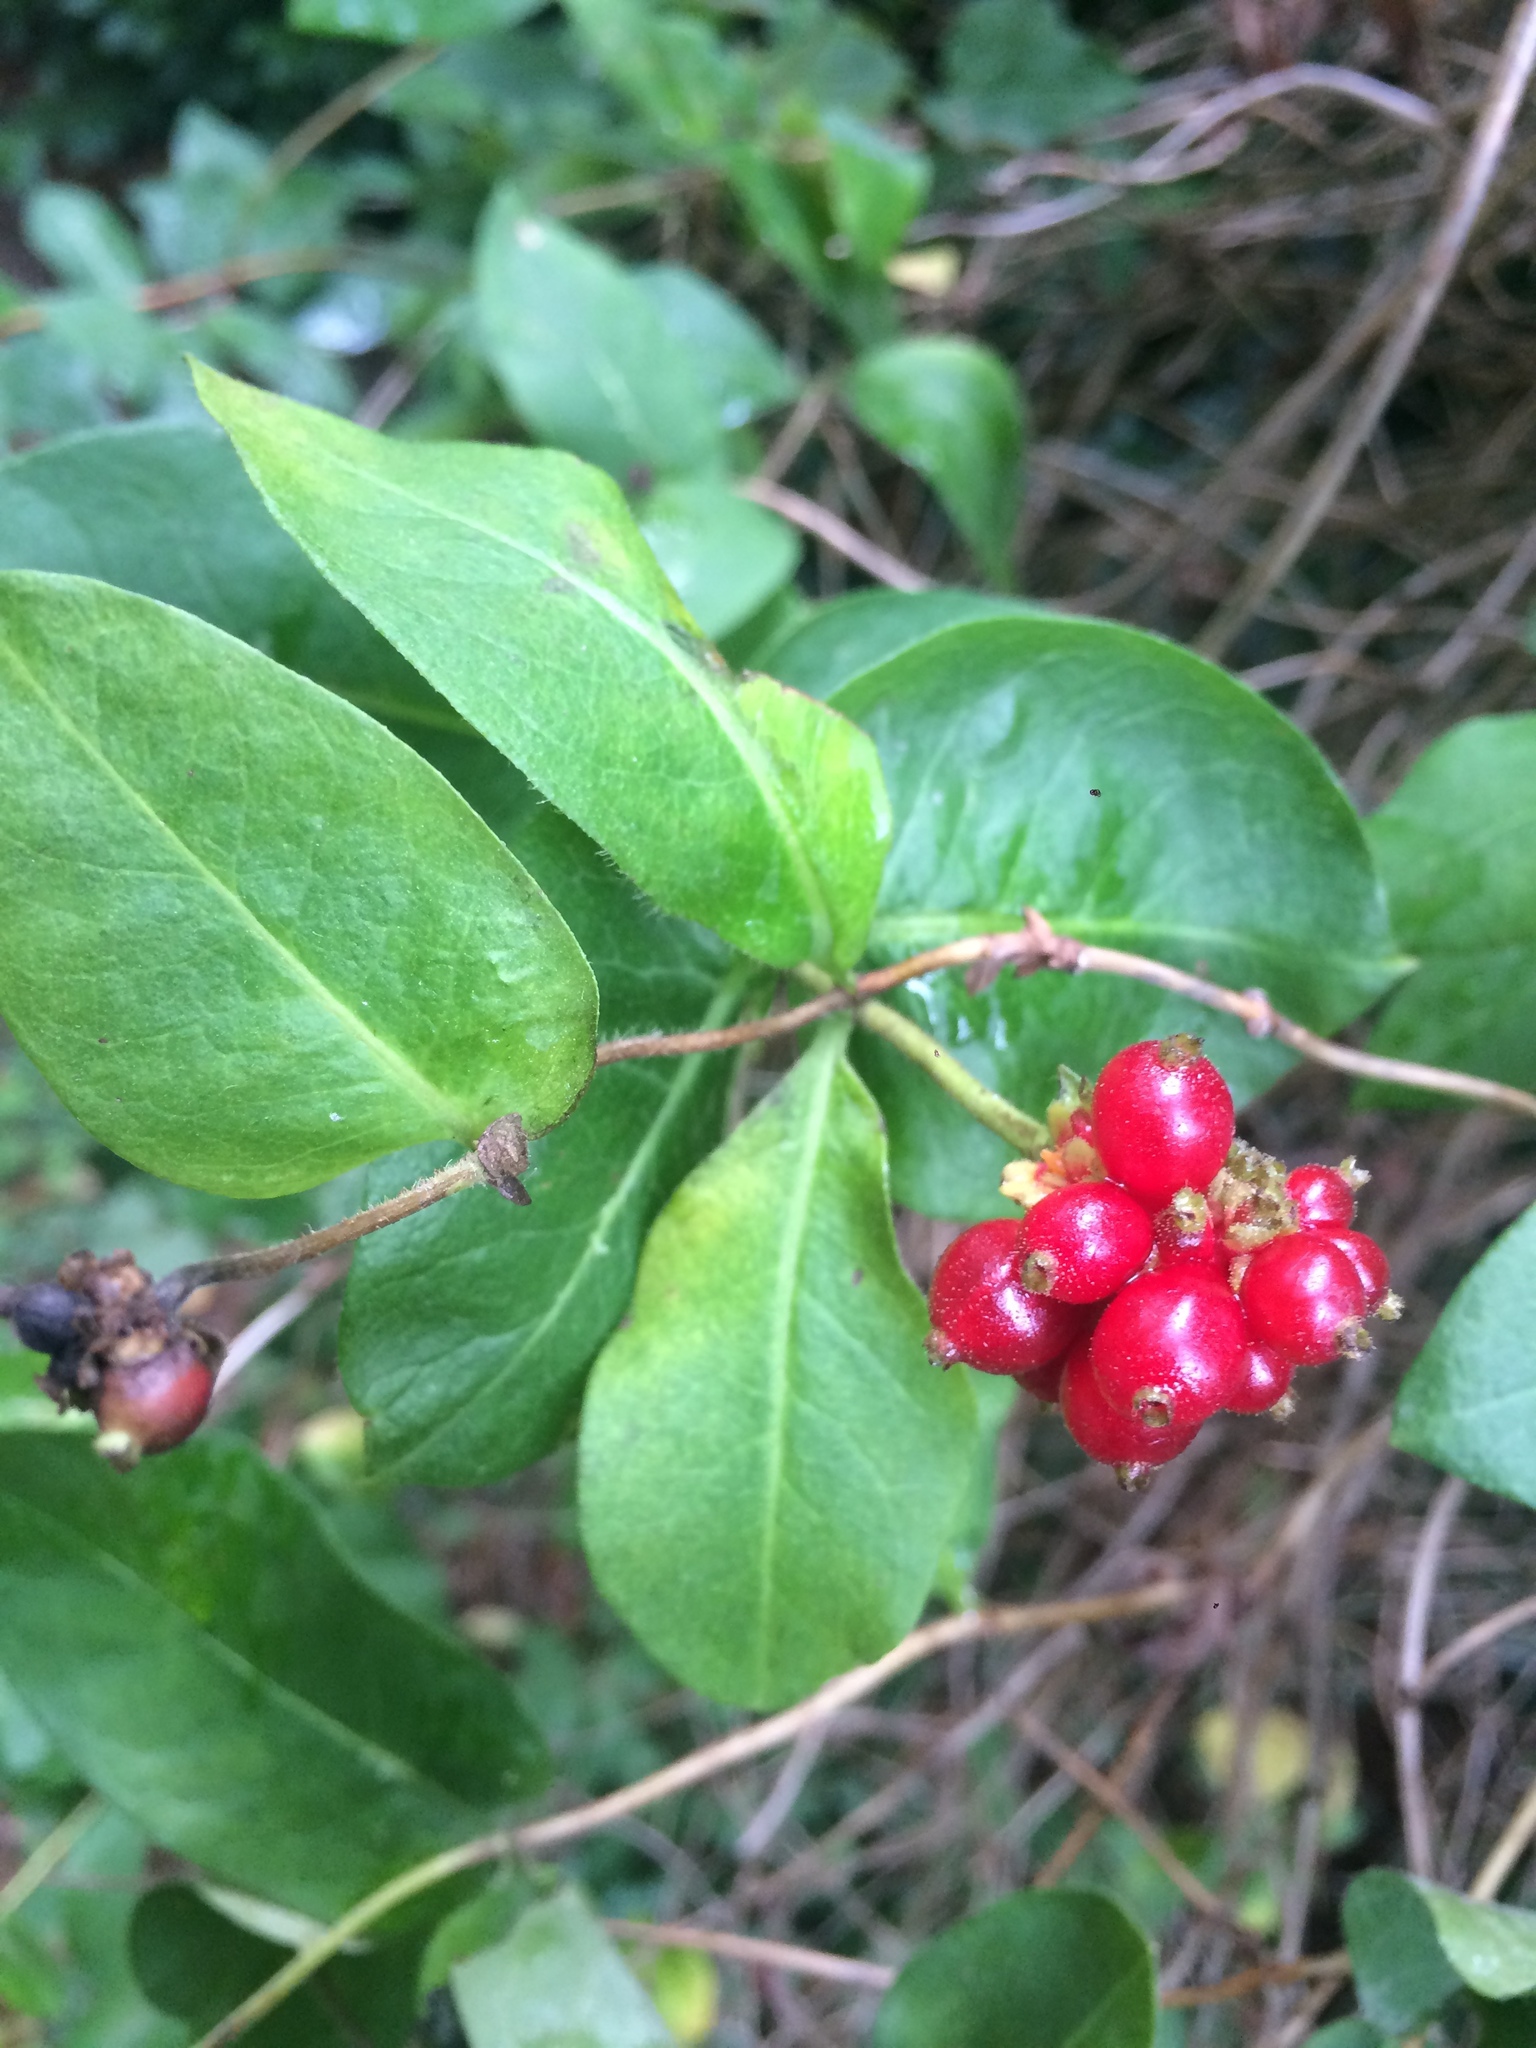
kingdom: Plantae
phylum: Tracheophyta
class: Magnoliopsida
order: Dipsacales
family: Caprifoliaceae
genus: Lonicera
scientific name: Lonicera periclymenum
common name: European honeysuckle
